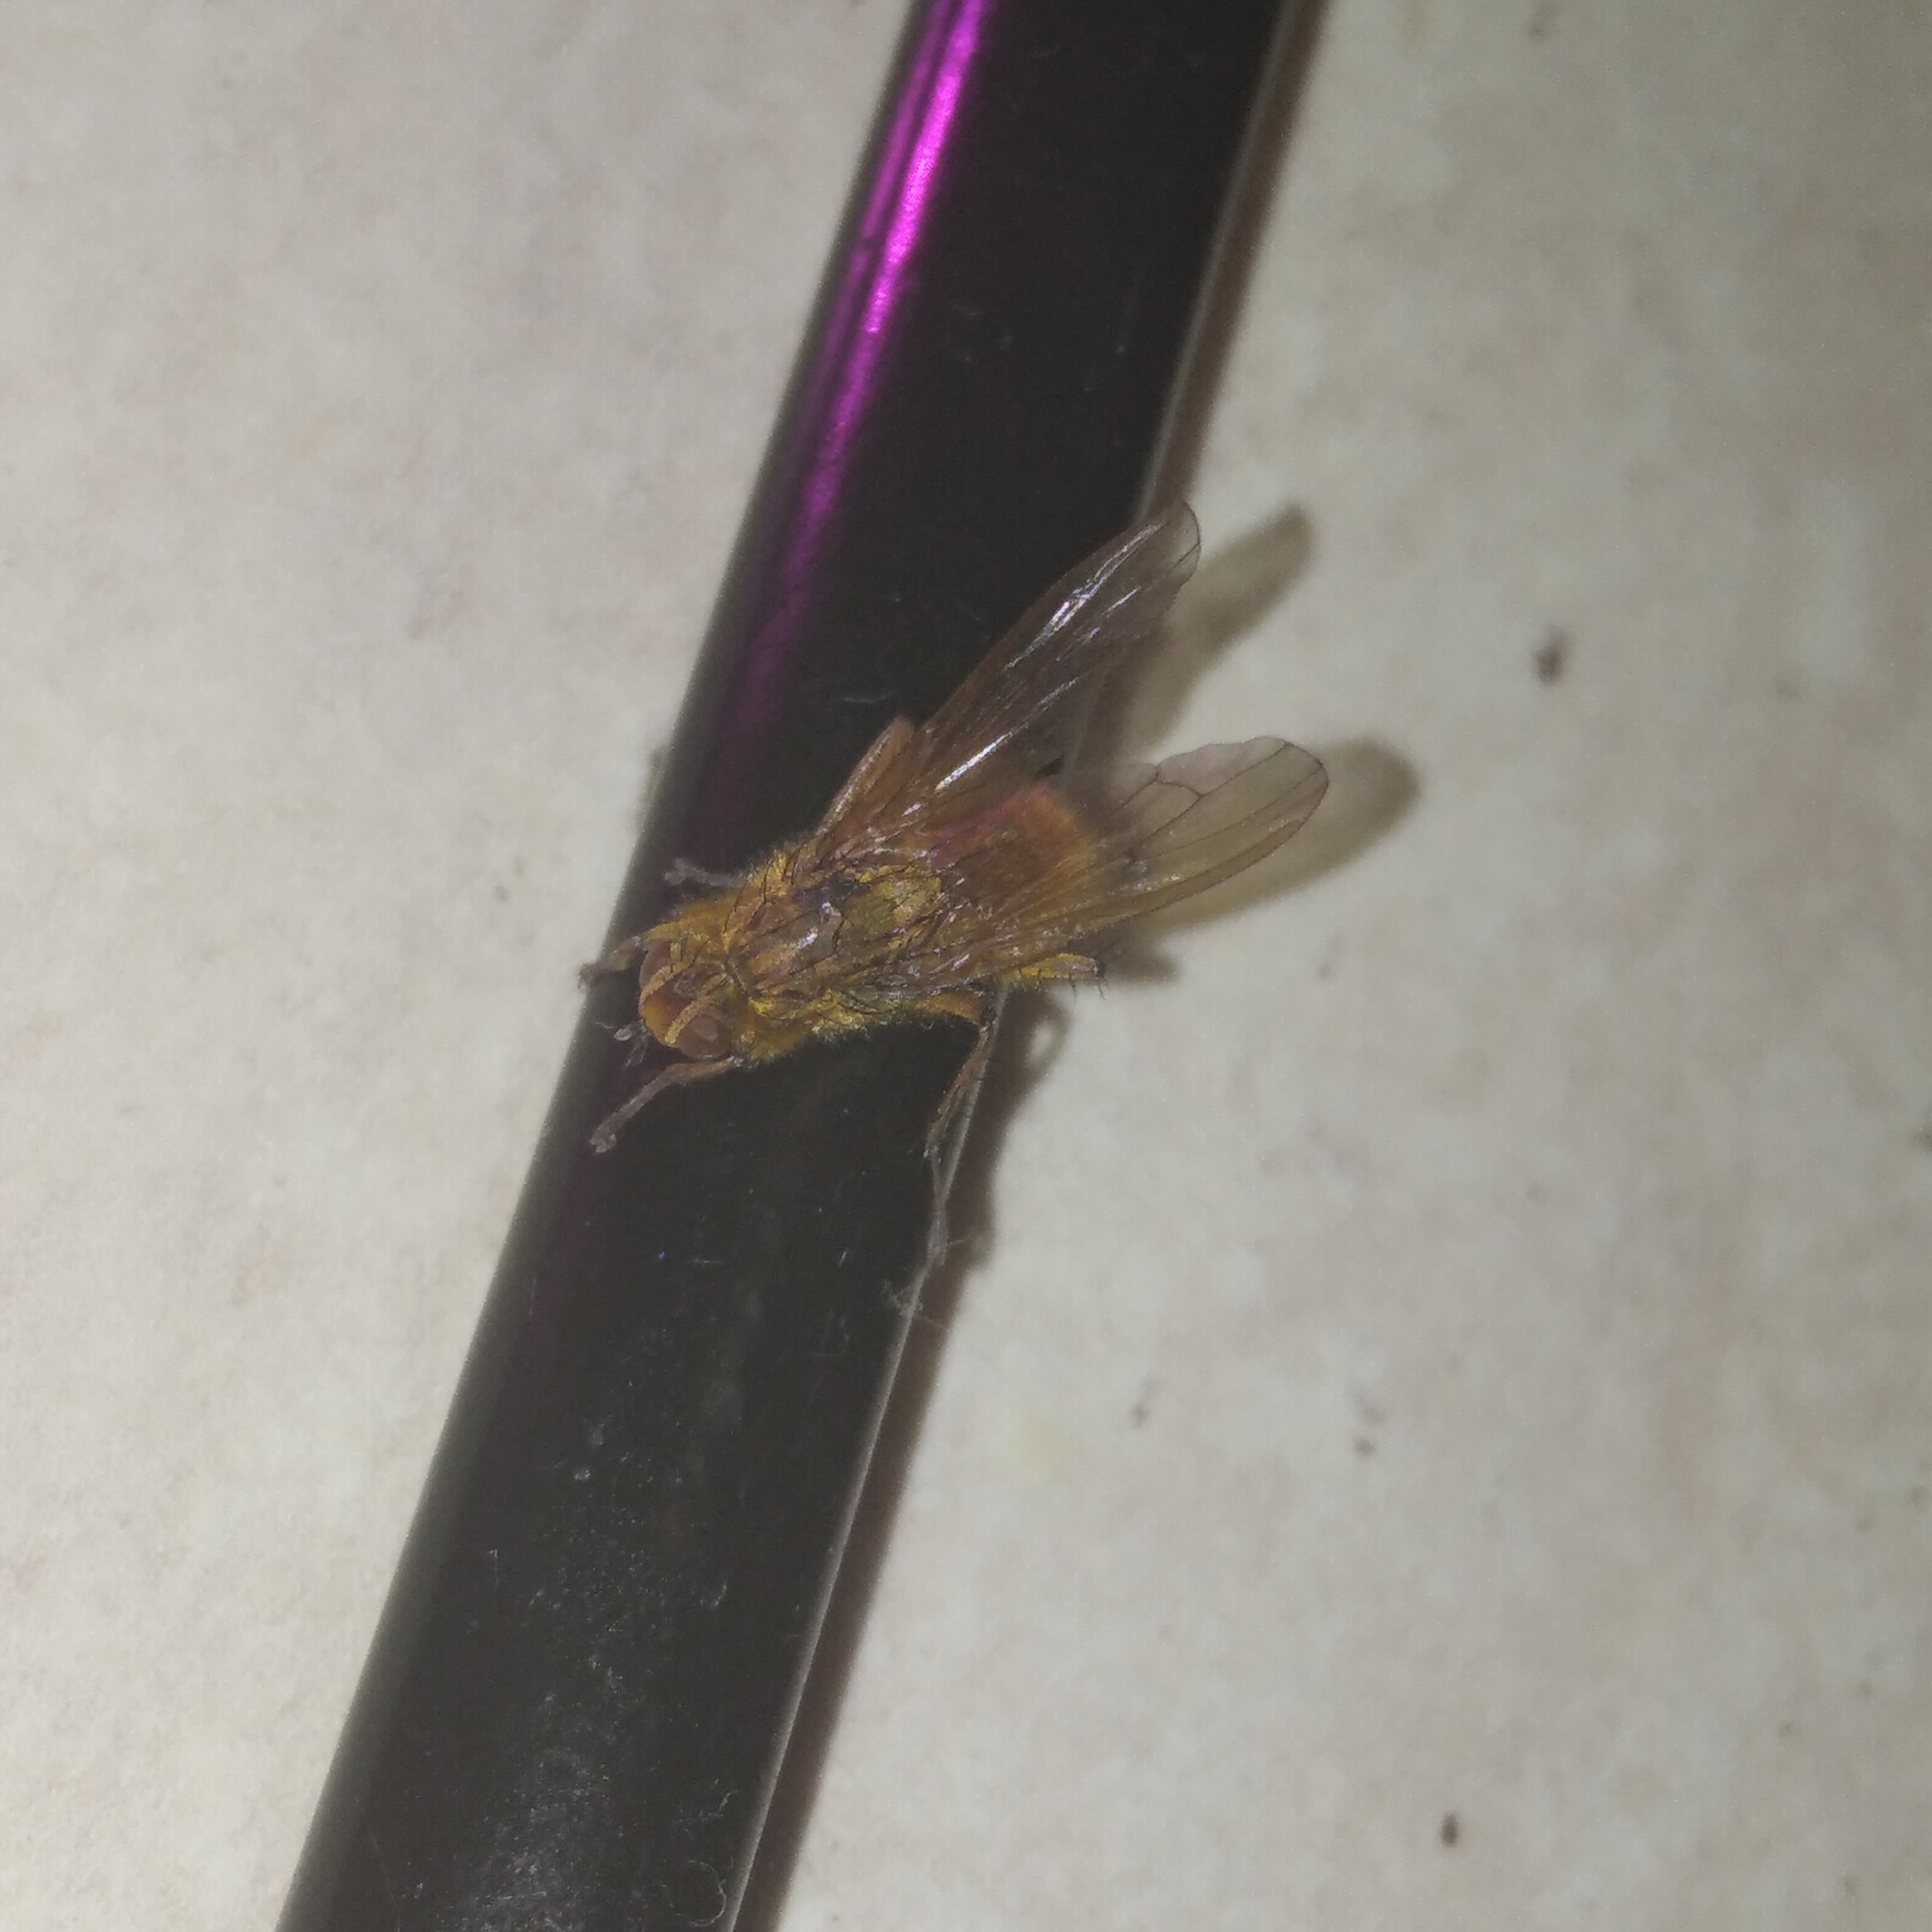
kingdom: Animalia
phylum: Arthropoda
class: Insecta
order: Diptera
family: Scathophagidae
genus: Scathophaga
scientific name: Scathophaga stercoraria
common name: Yellow dung fly
